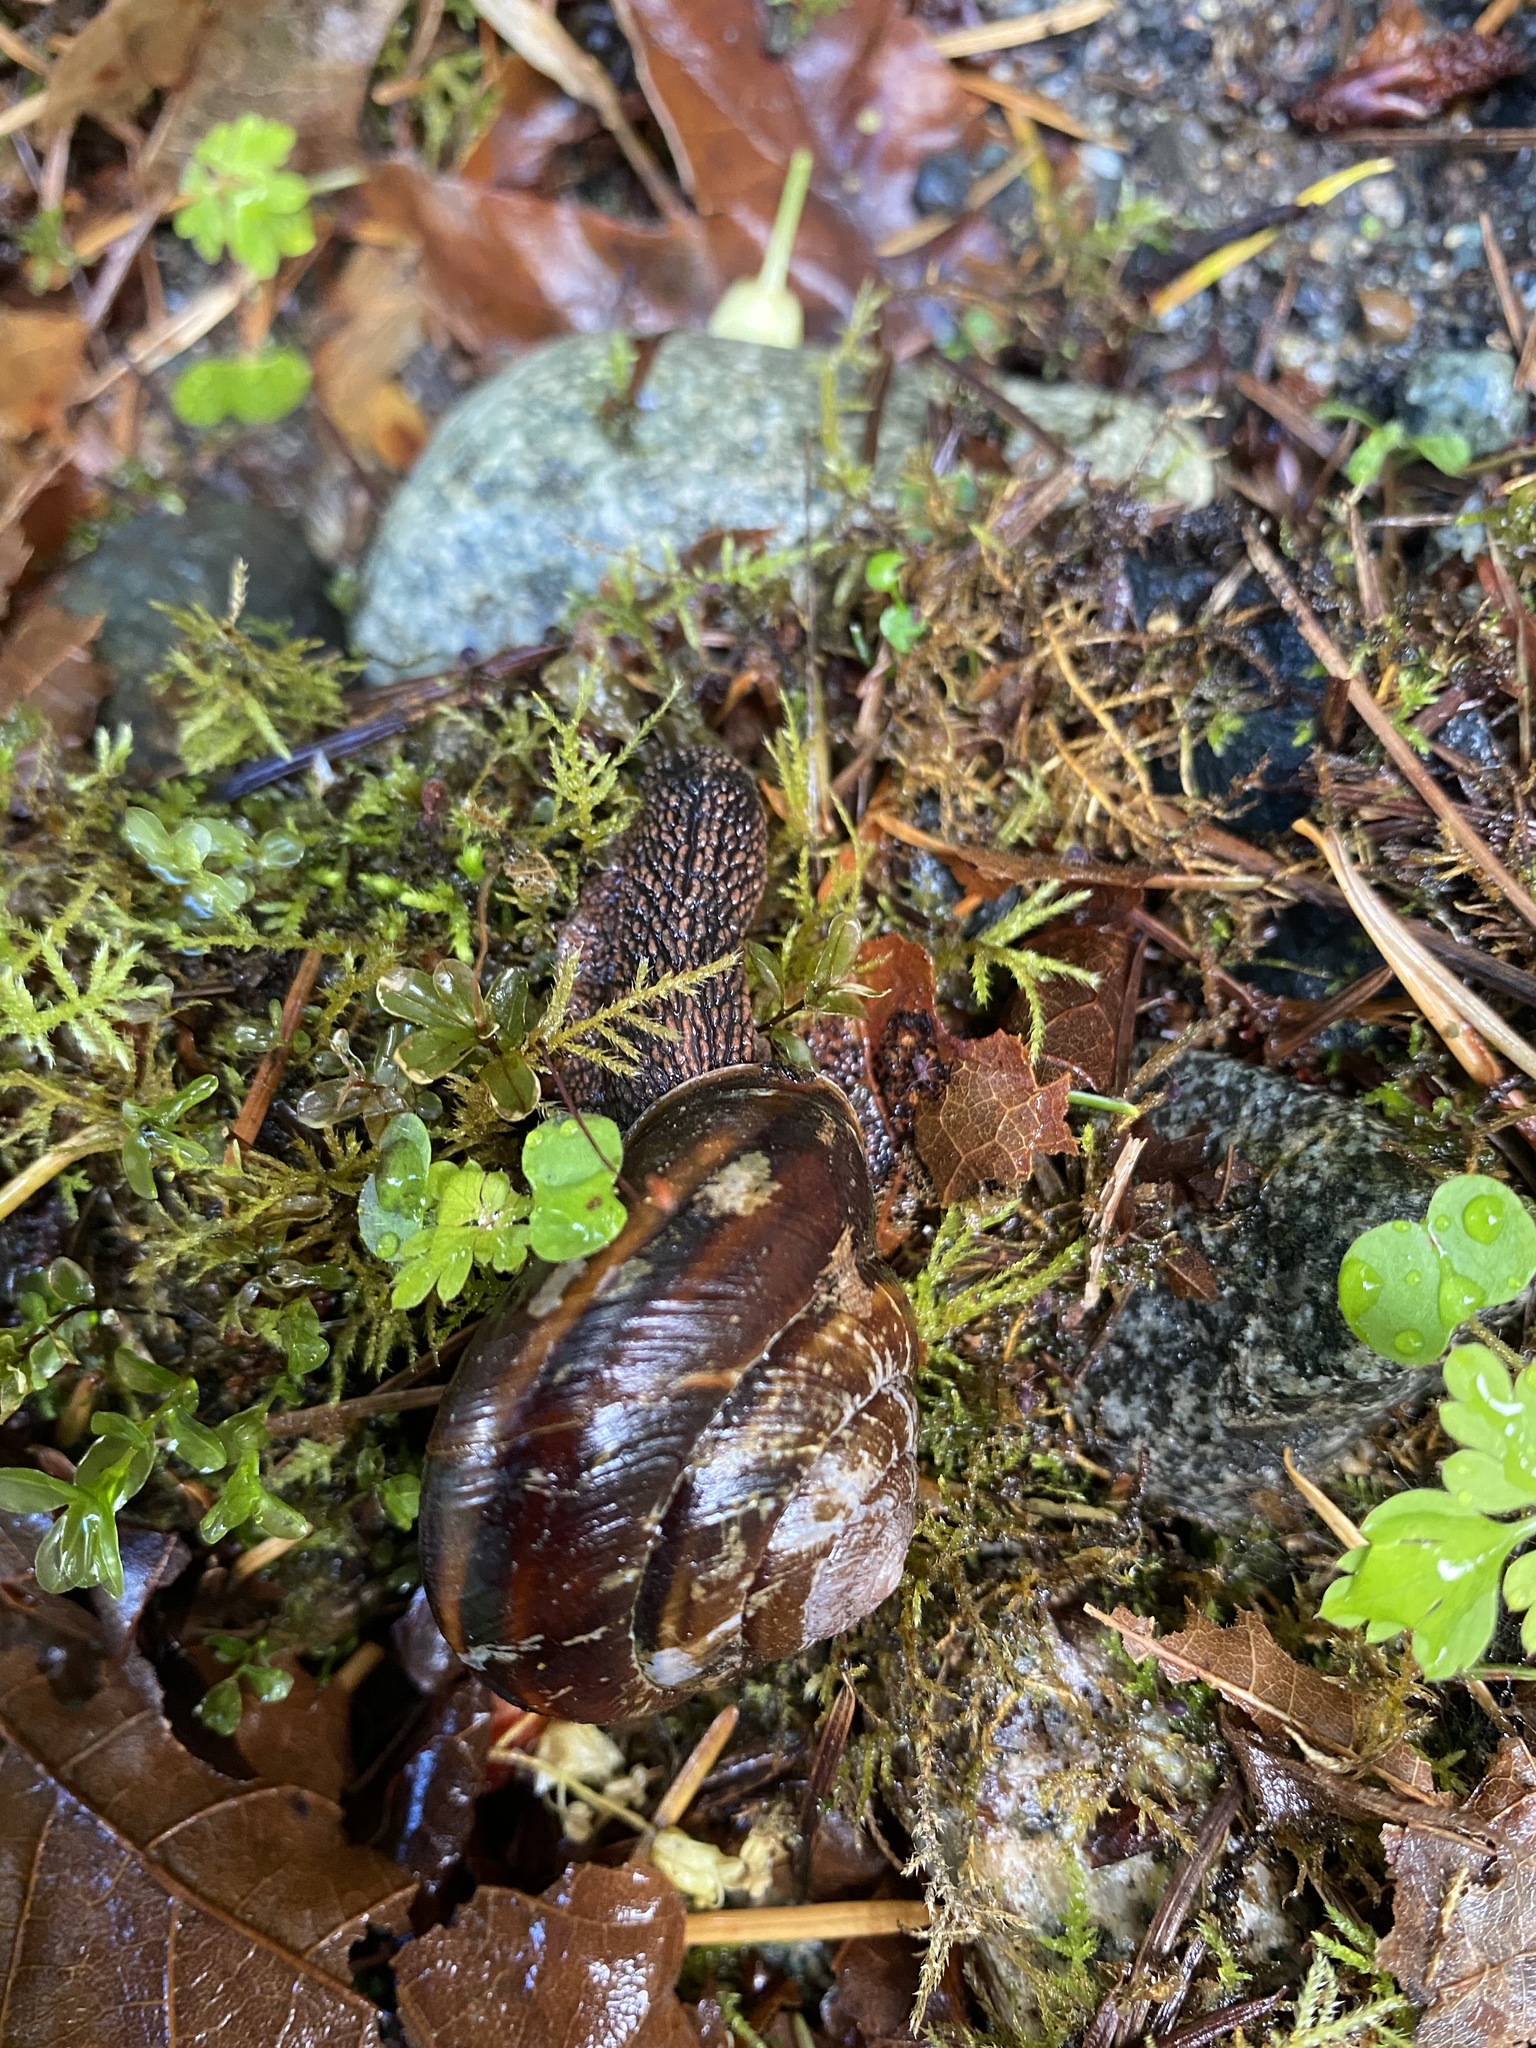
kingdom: Animalia
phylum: Mollusca
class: Gastropoda
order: Stylommatophora
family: Xanthonychidae
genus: Monadenia
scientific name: Monadenia fidelis
